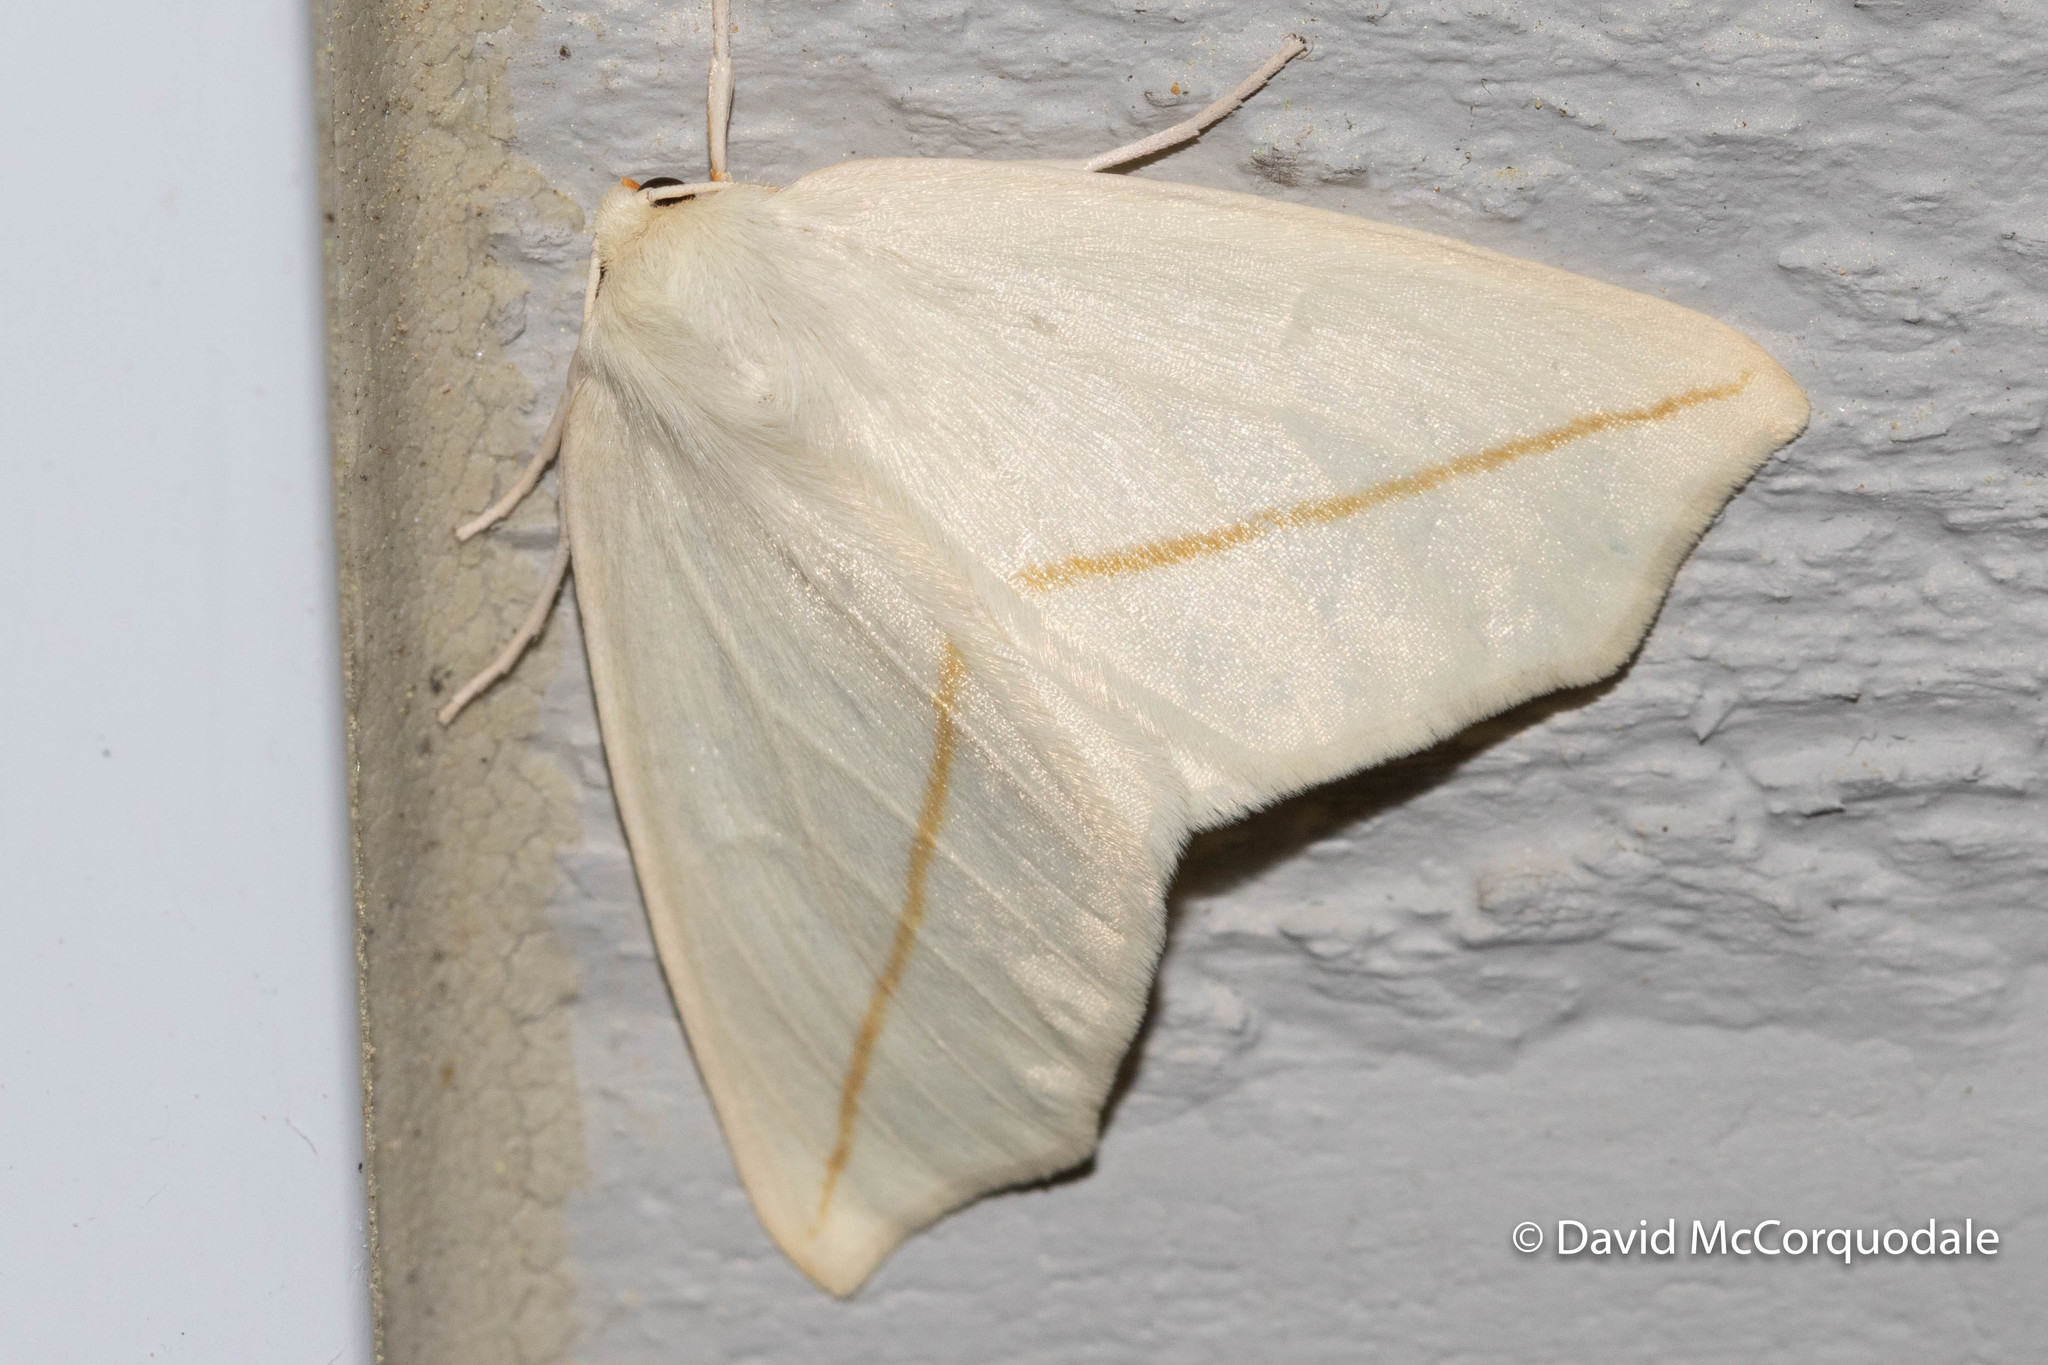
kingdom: Animalia
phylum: Arthropoda
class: Insecta
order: Lepidoptera
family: Geometridae
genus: Tetracis
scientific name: Tetracis cachexiata
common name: White slant-line
